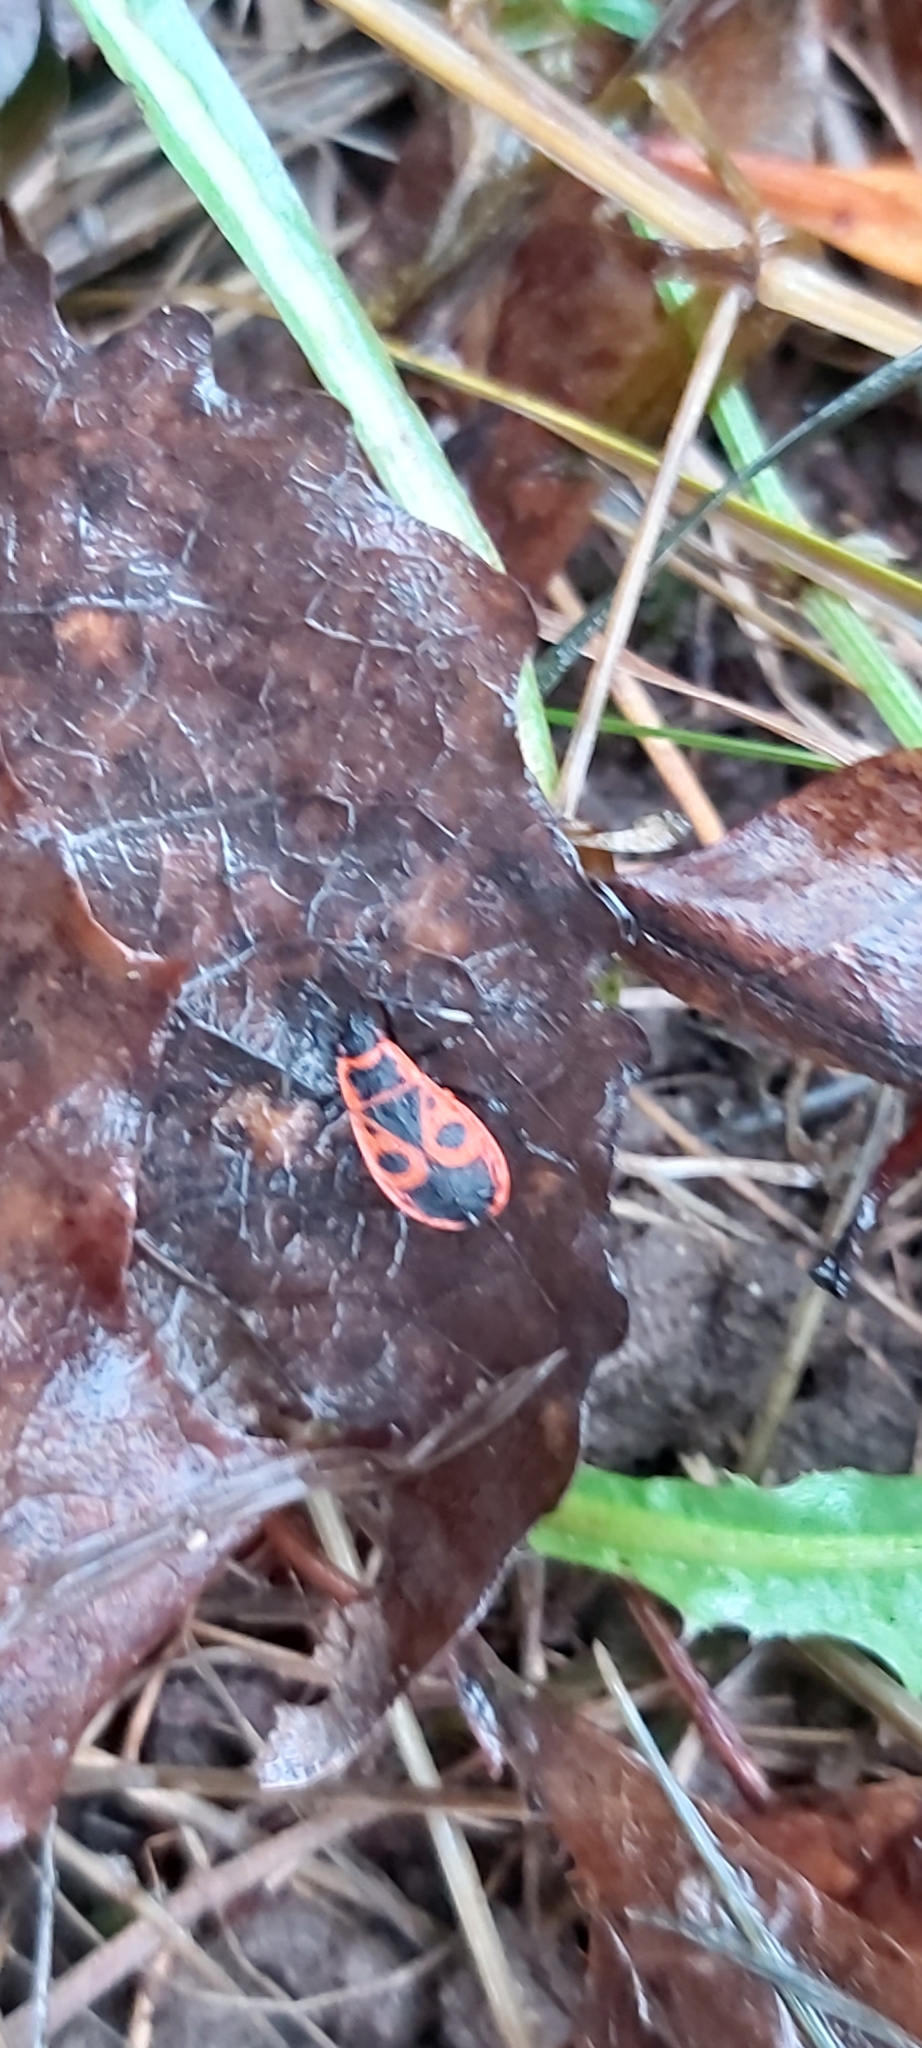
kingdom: Animalia
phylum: Arthropoda
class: Insecta
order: Hemiptera
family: Pyrrhocoridae
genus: Pyrrhocoris
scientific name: Pyrrhocoris apterus
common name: Firebug
